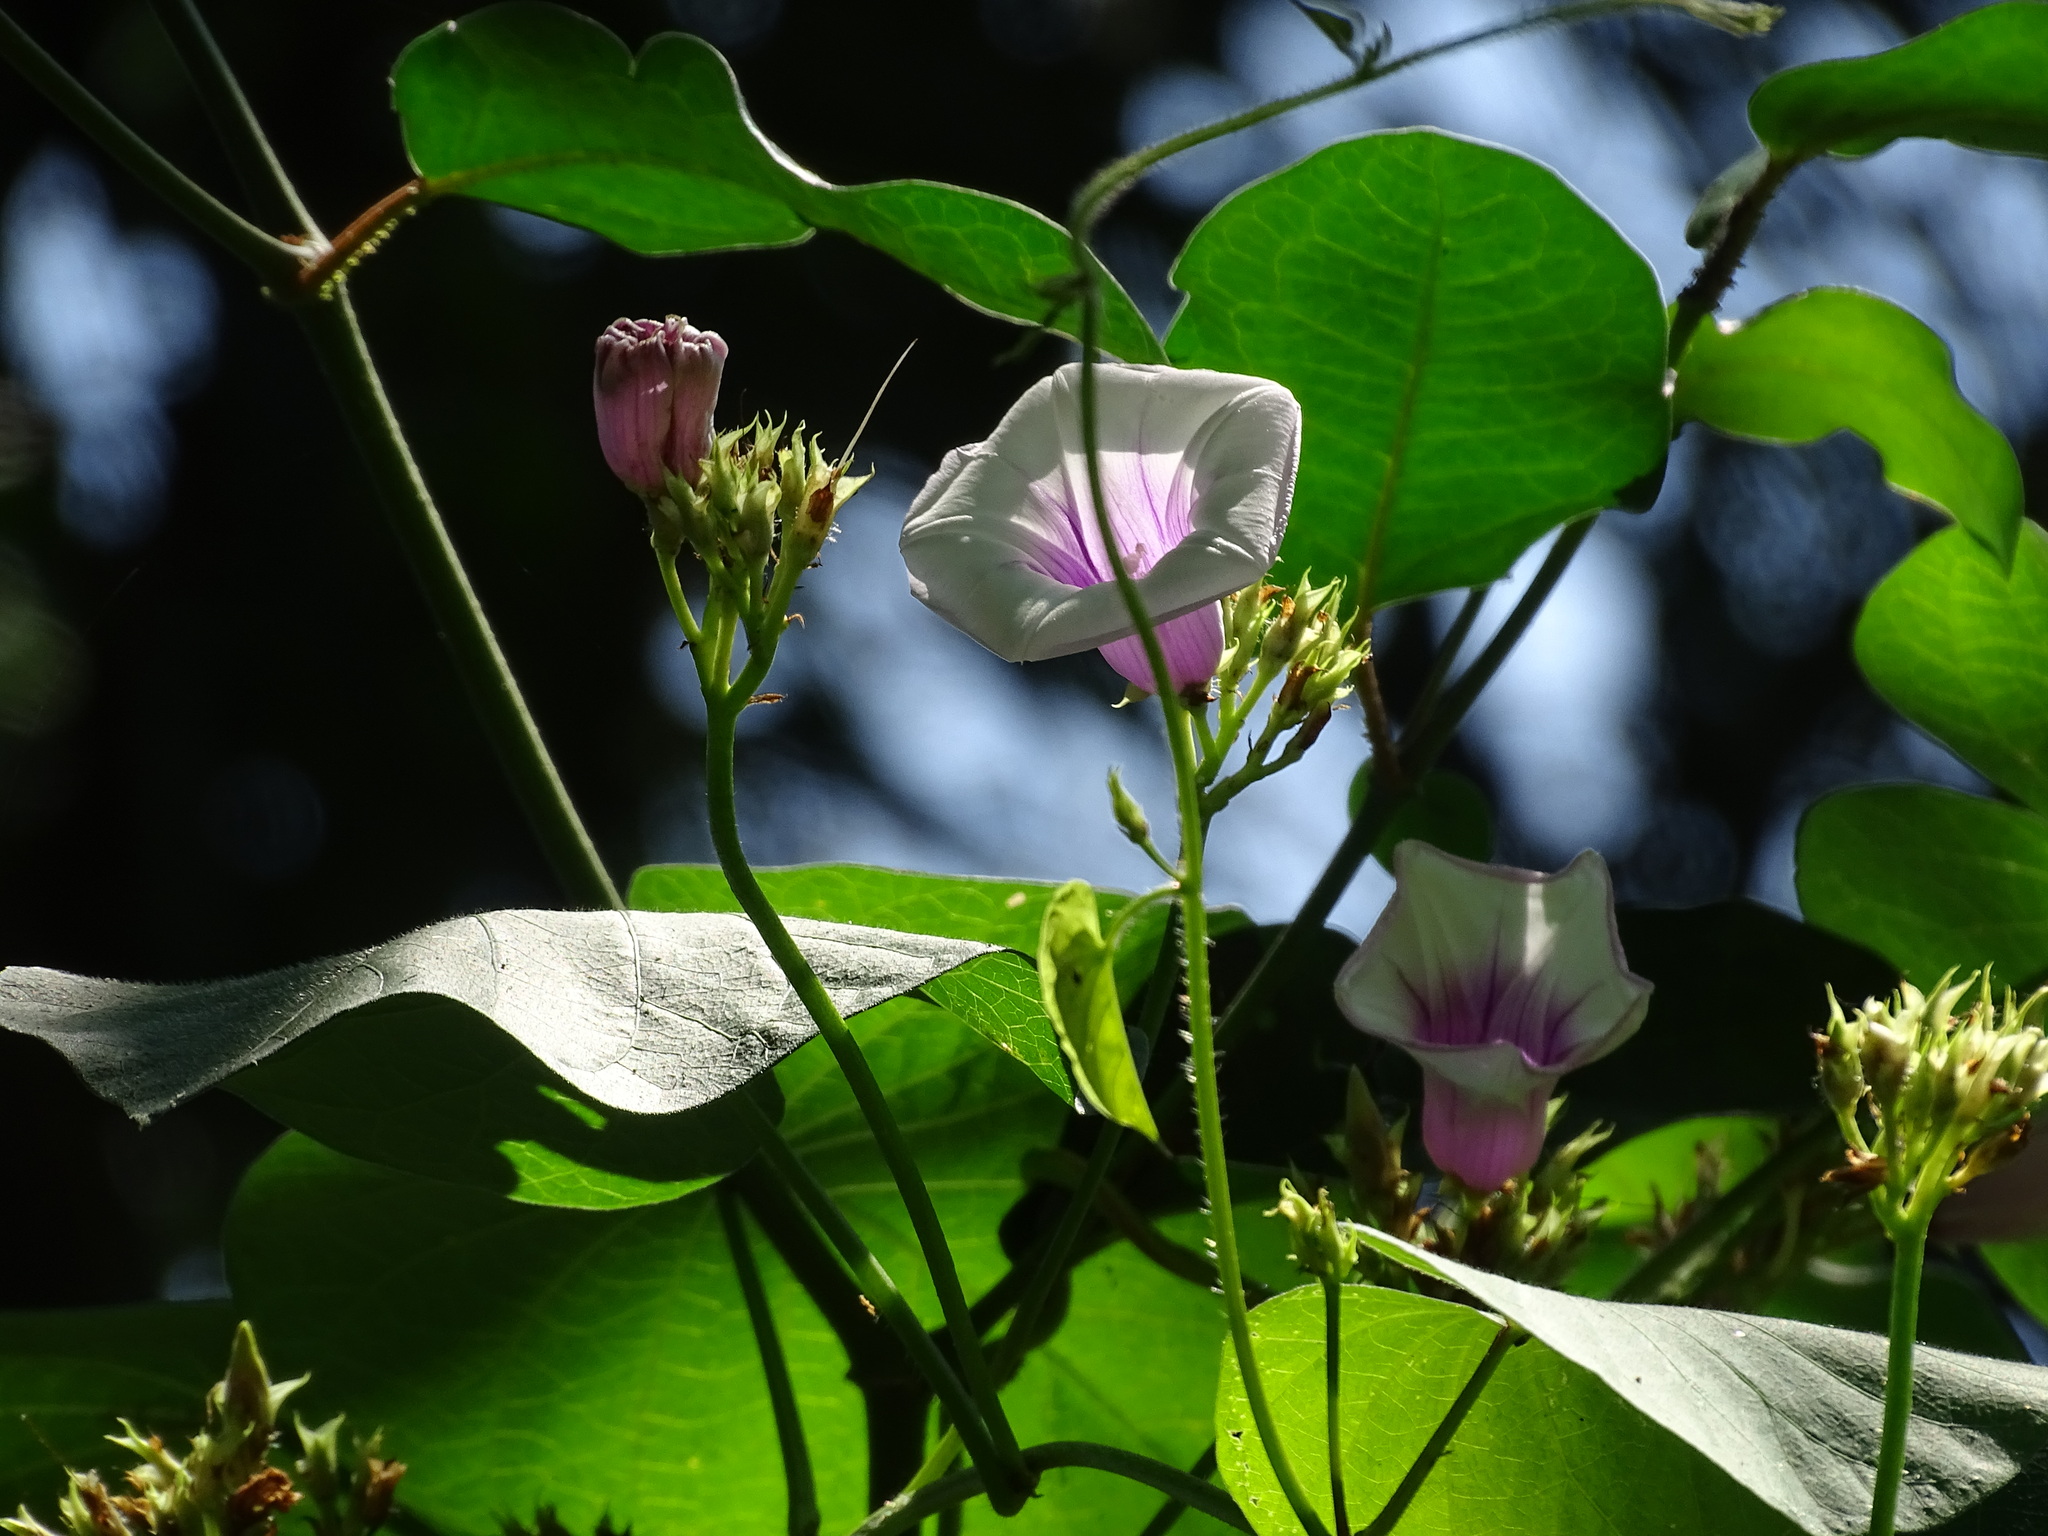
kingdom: Plantae
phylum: Tracheophyta
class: Magnoliopsida
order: Solanales
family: Convolvulaceae
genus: Ipomoea
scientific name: Ipomoea batatas
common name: Sweet-potato
